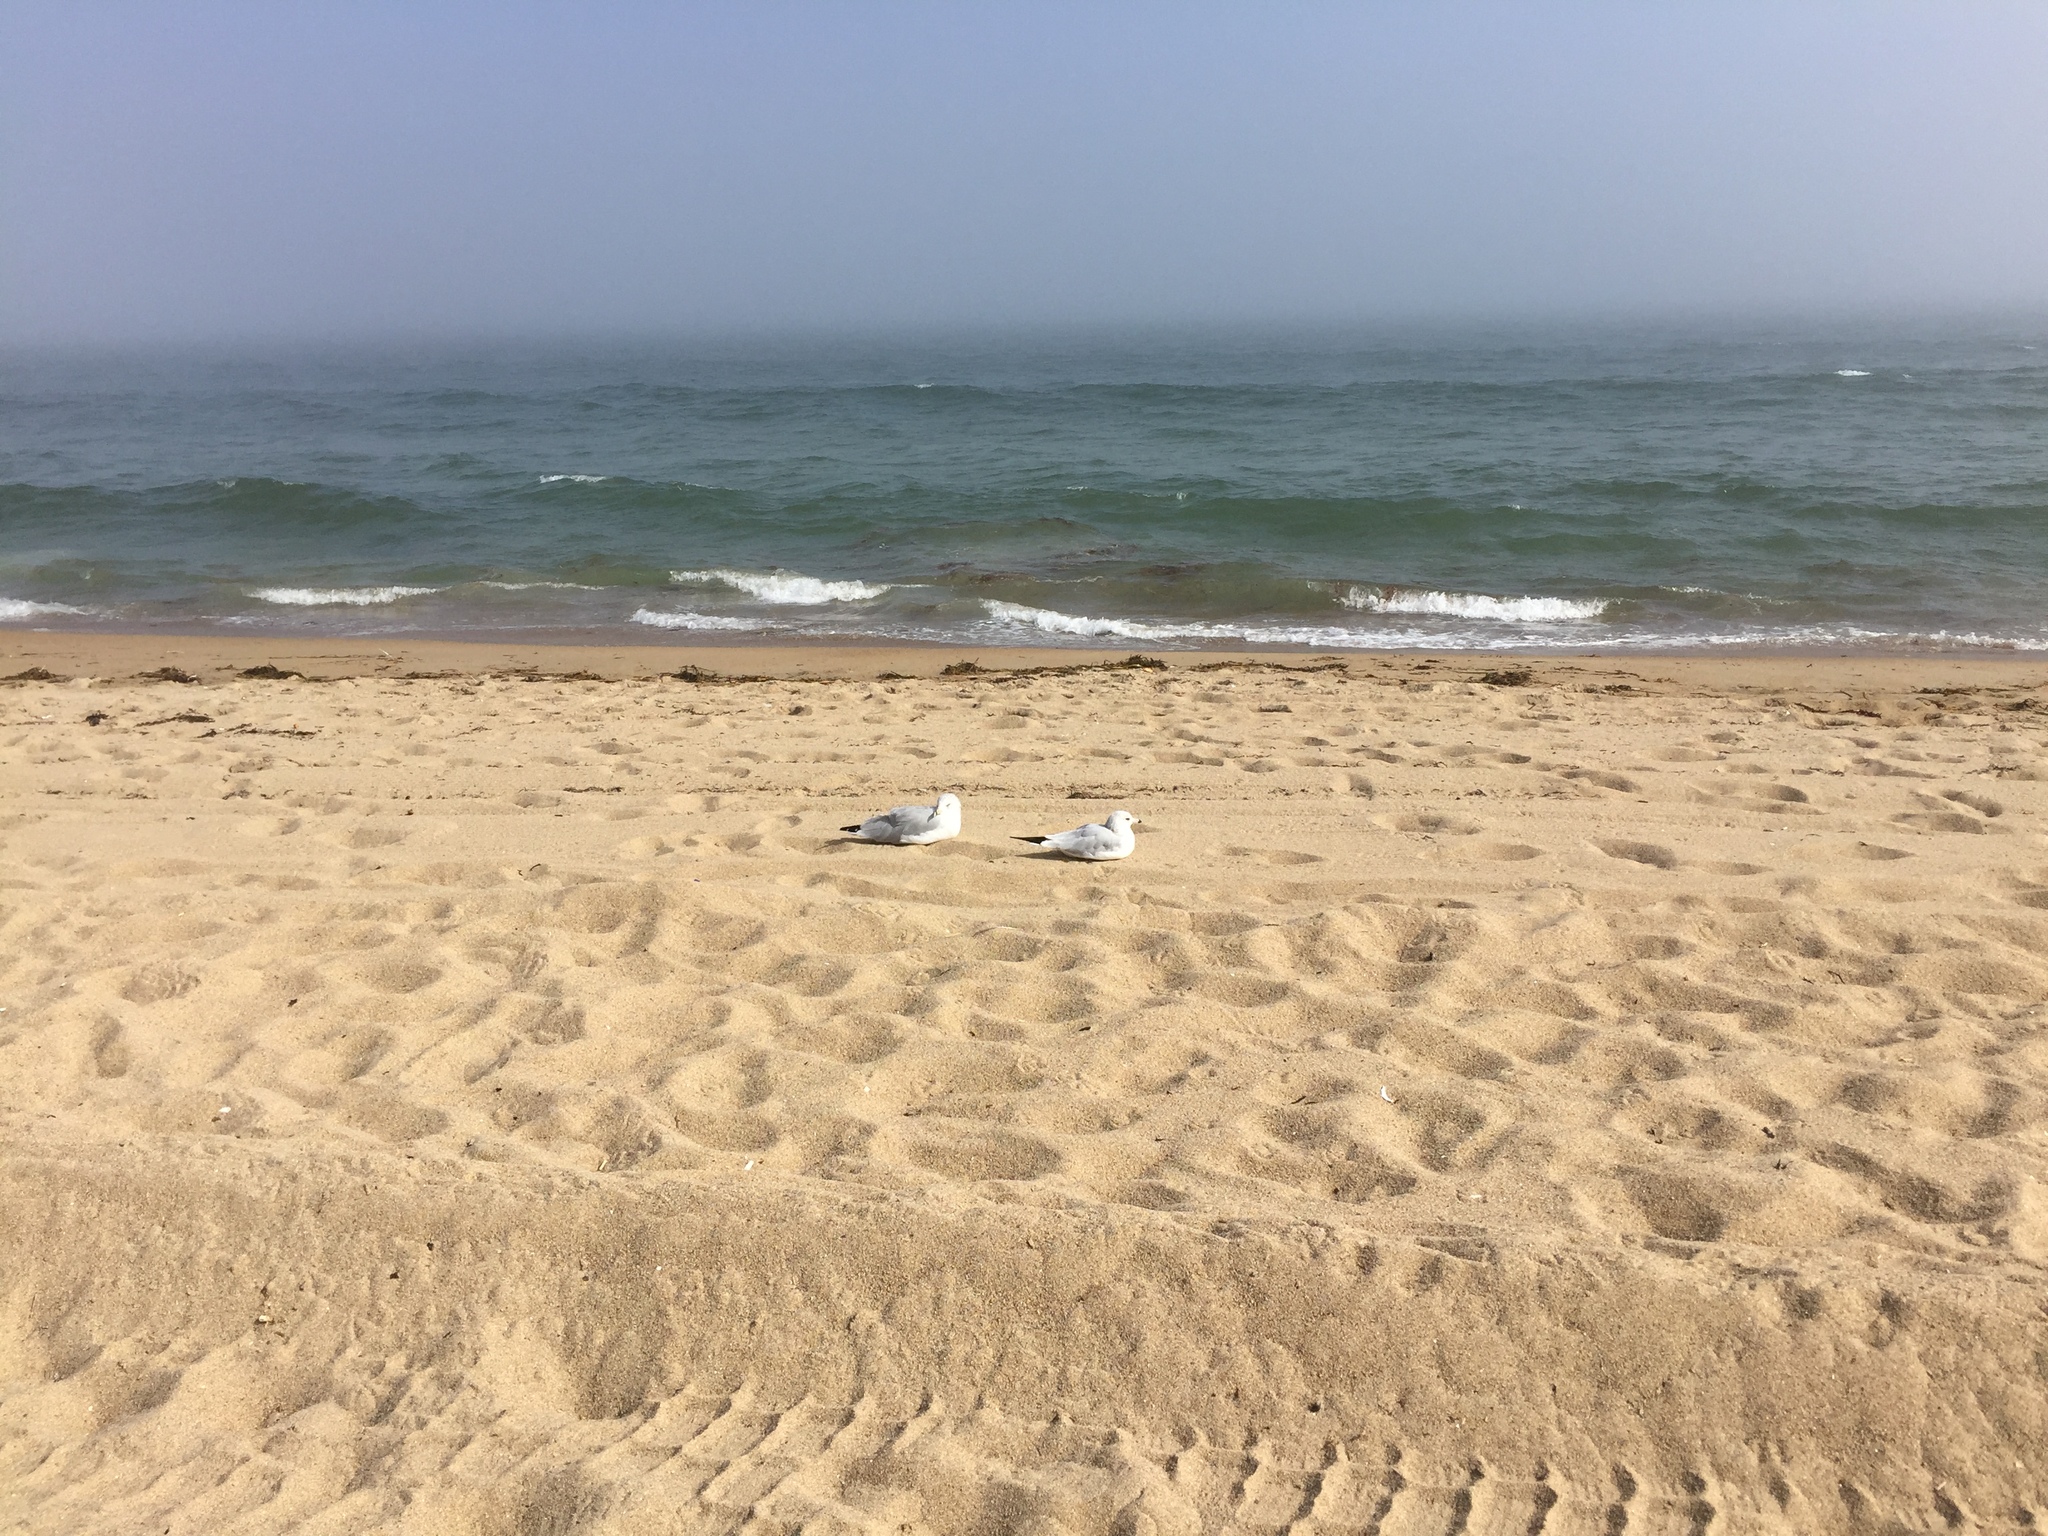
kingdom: Animalia
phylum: Chordata
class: Aves
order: Charadriiformes
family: Laridae
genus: Larus
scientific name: Larus delawarensis
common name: Ring-billed gull
